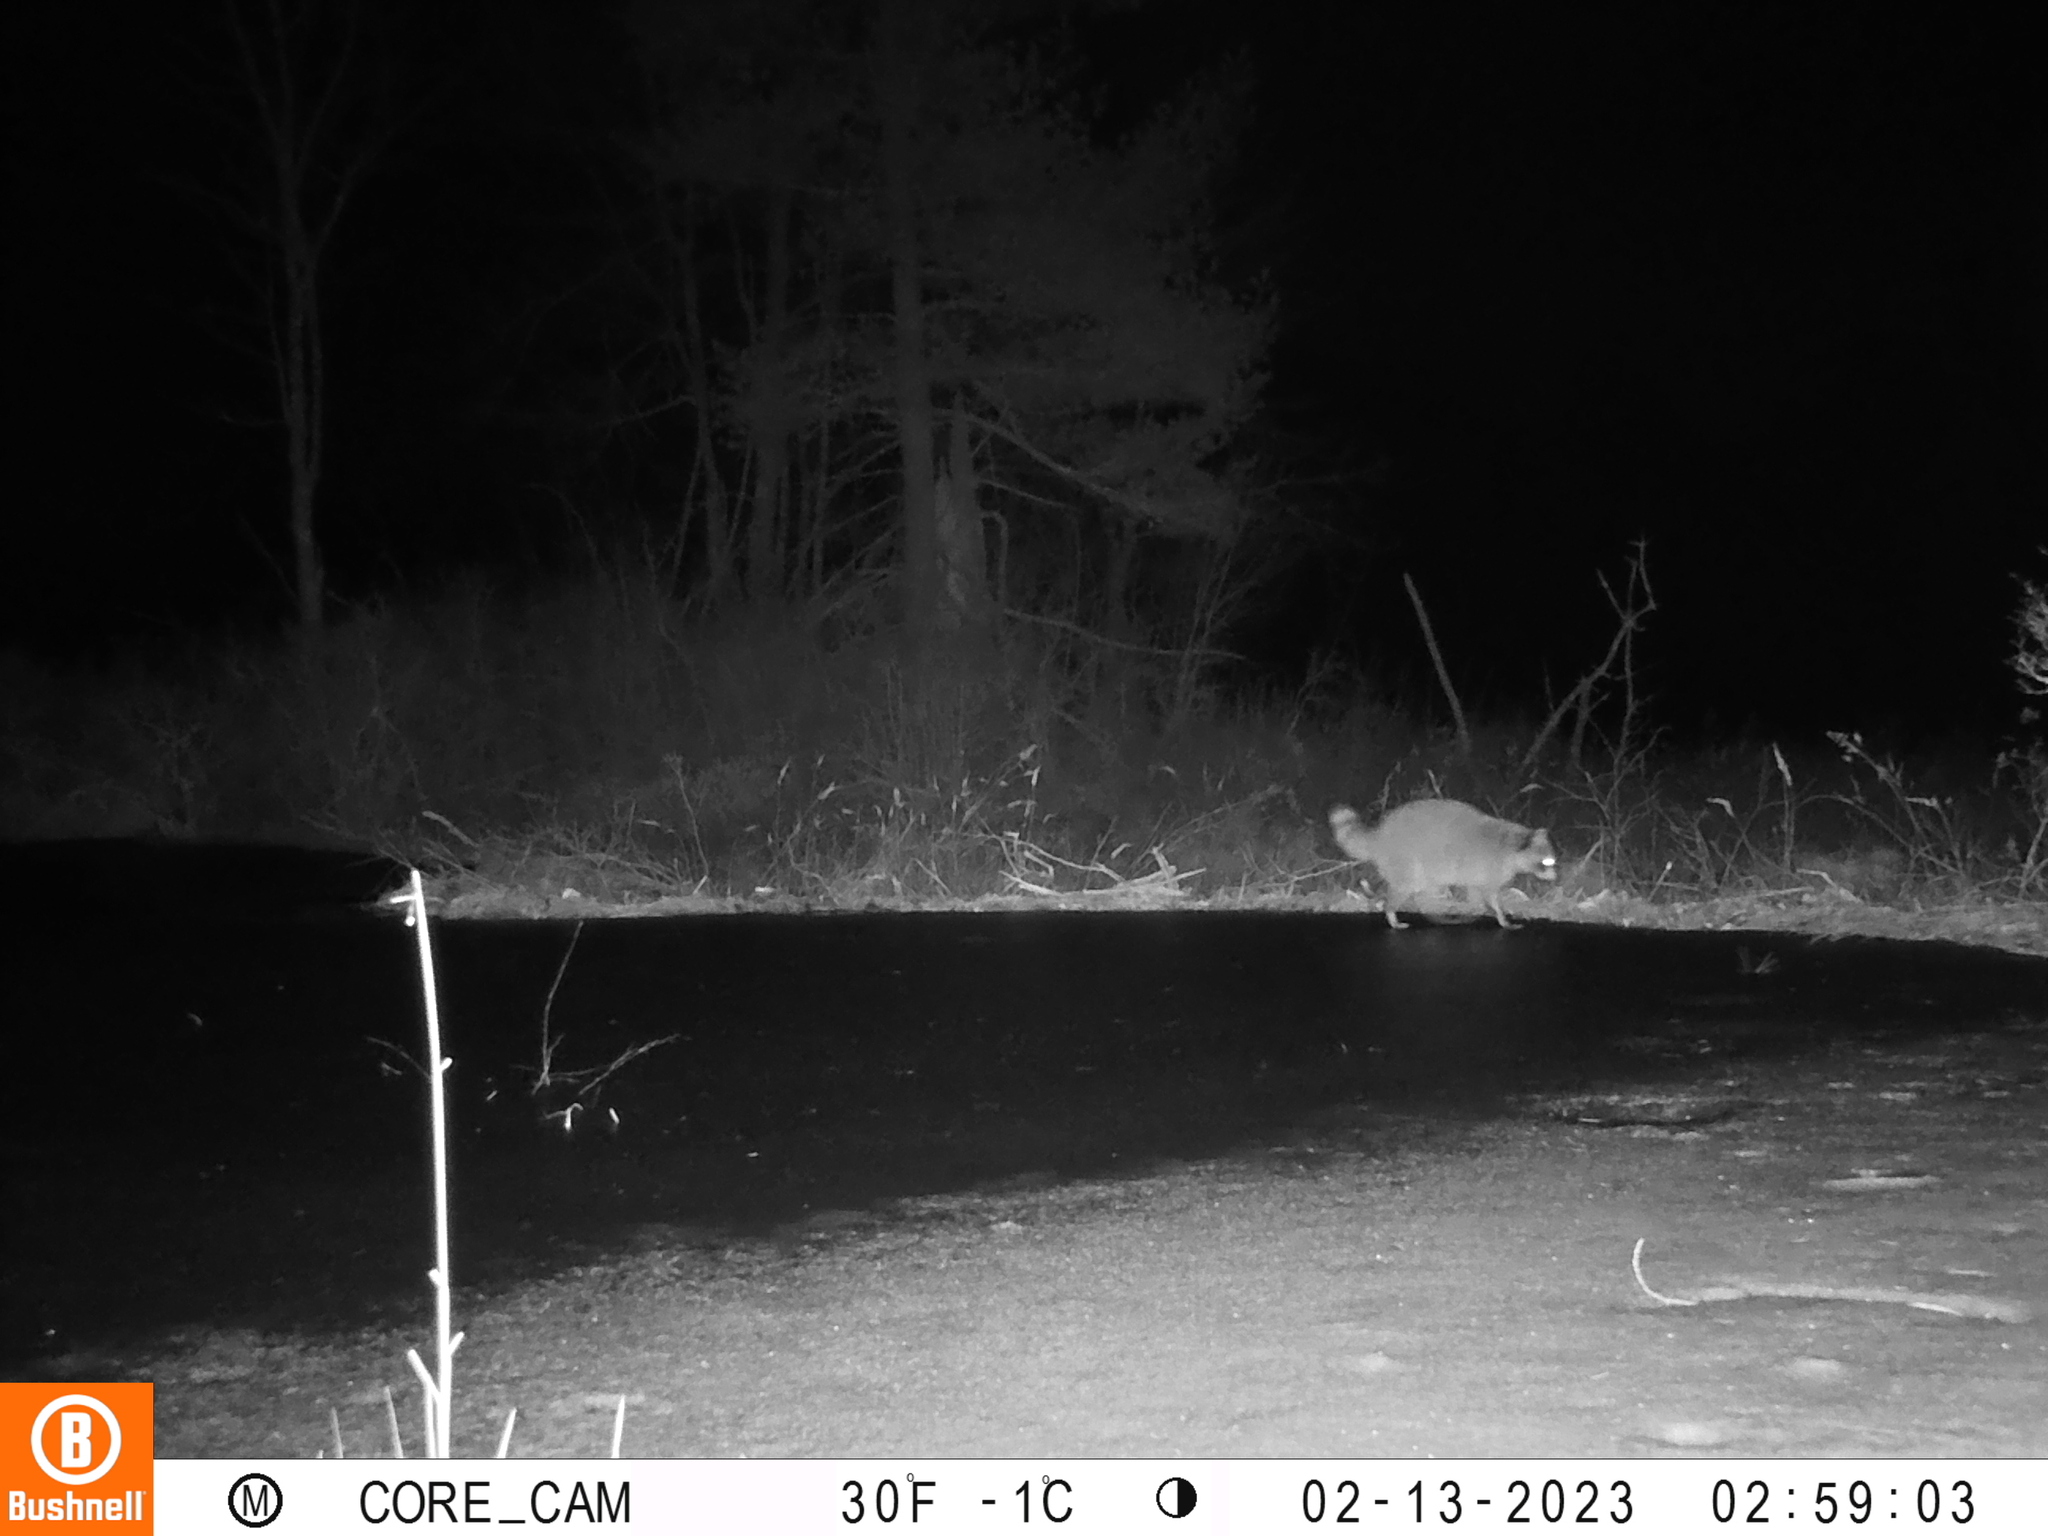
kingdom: Animalia
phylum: Chordata
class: Mammalia
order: Carnivora
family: Procyonidae
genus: Procyon
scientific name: Procyon lotor
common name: Raccoon
